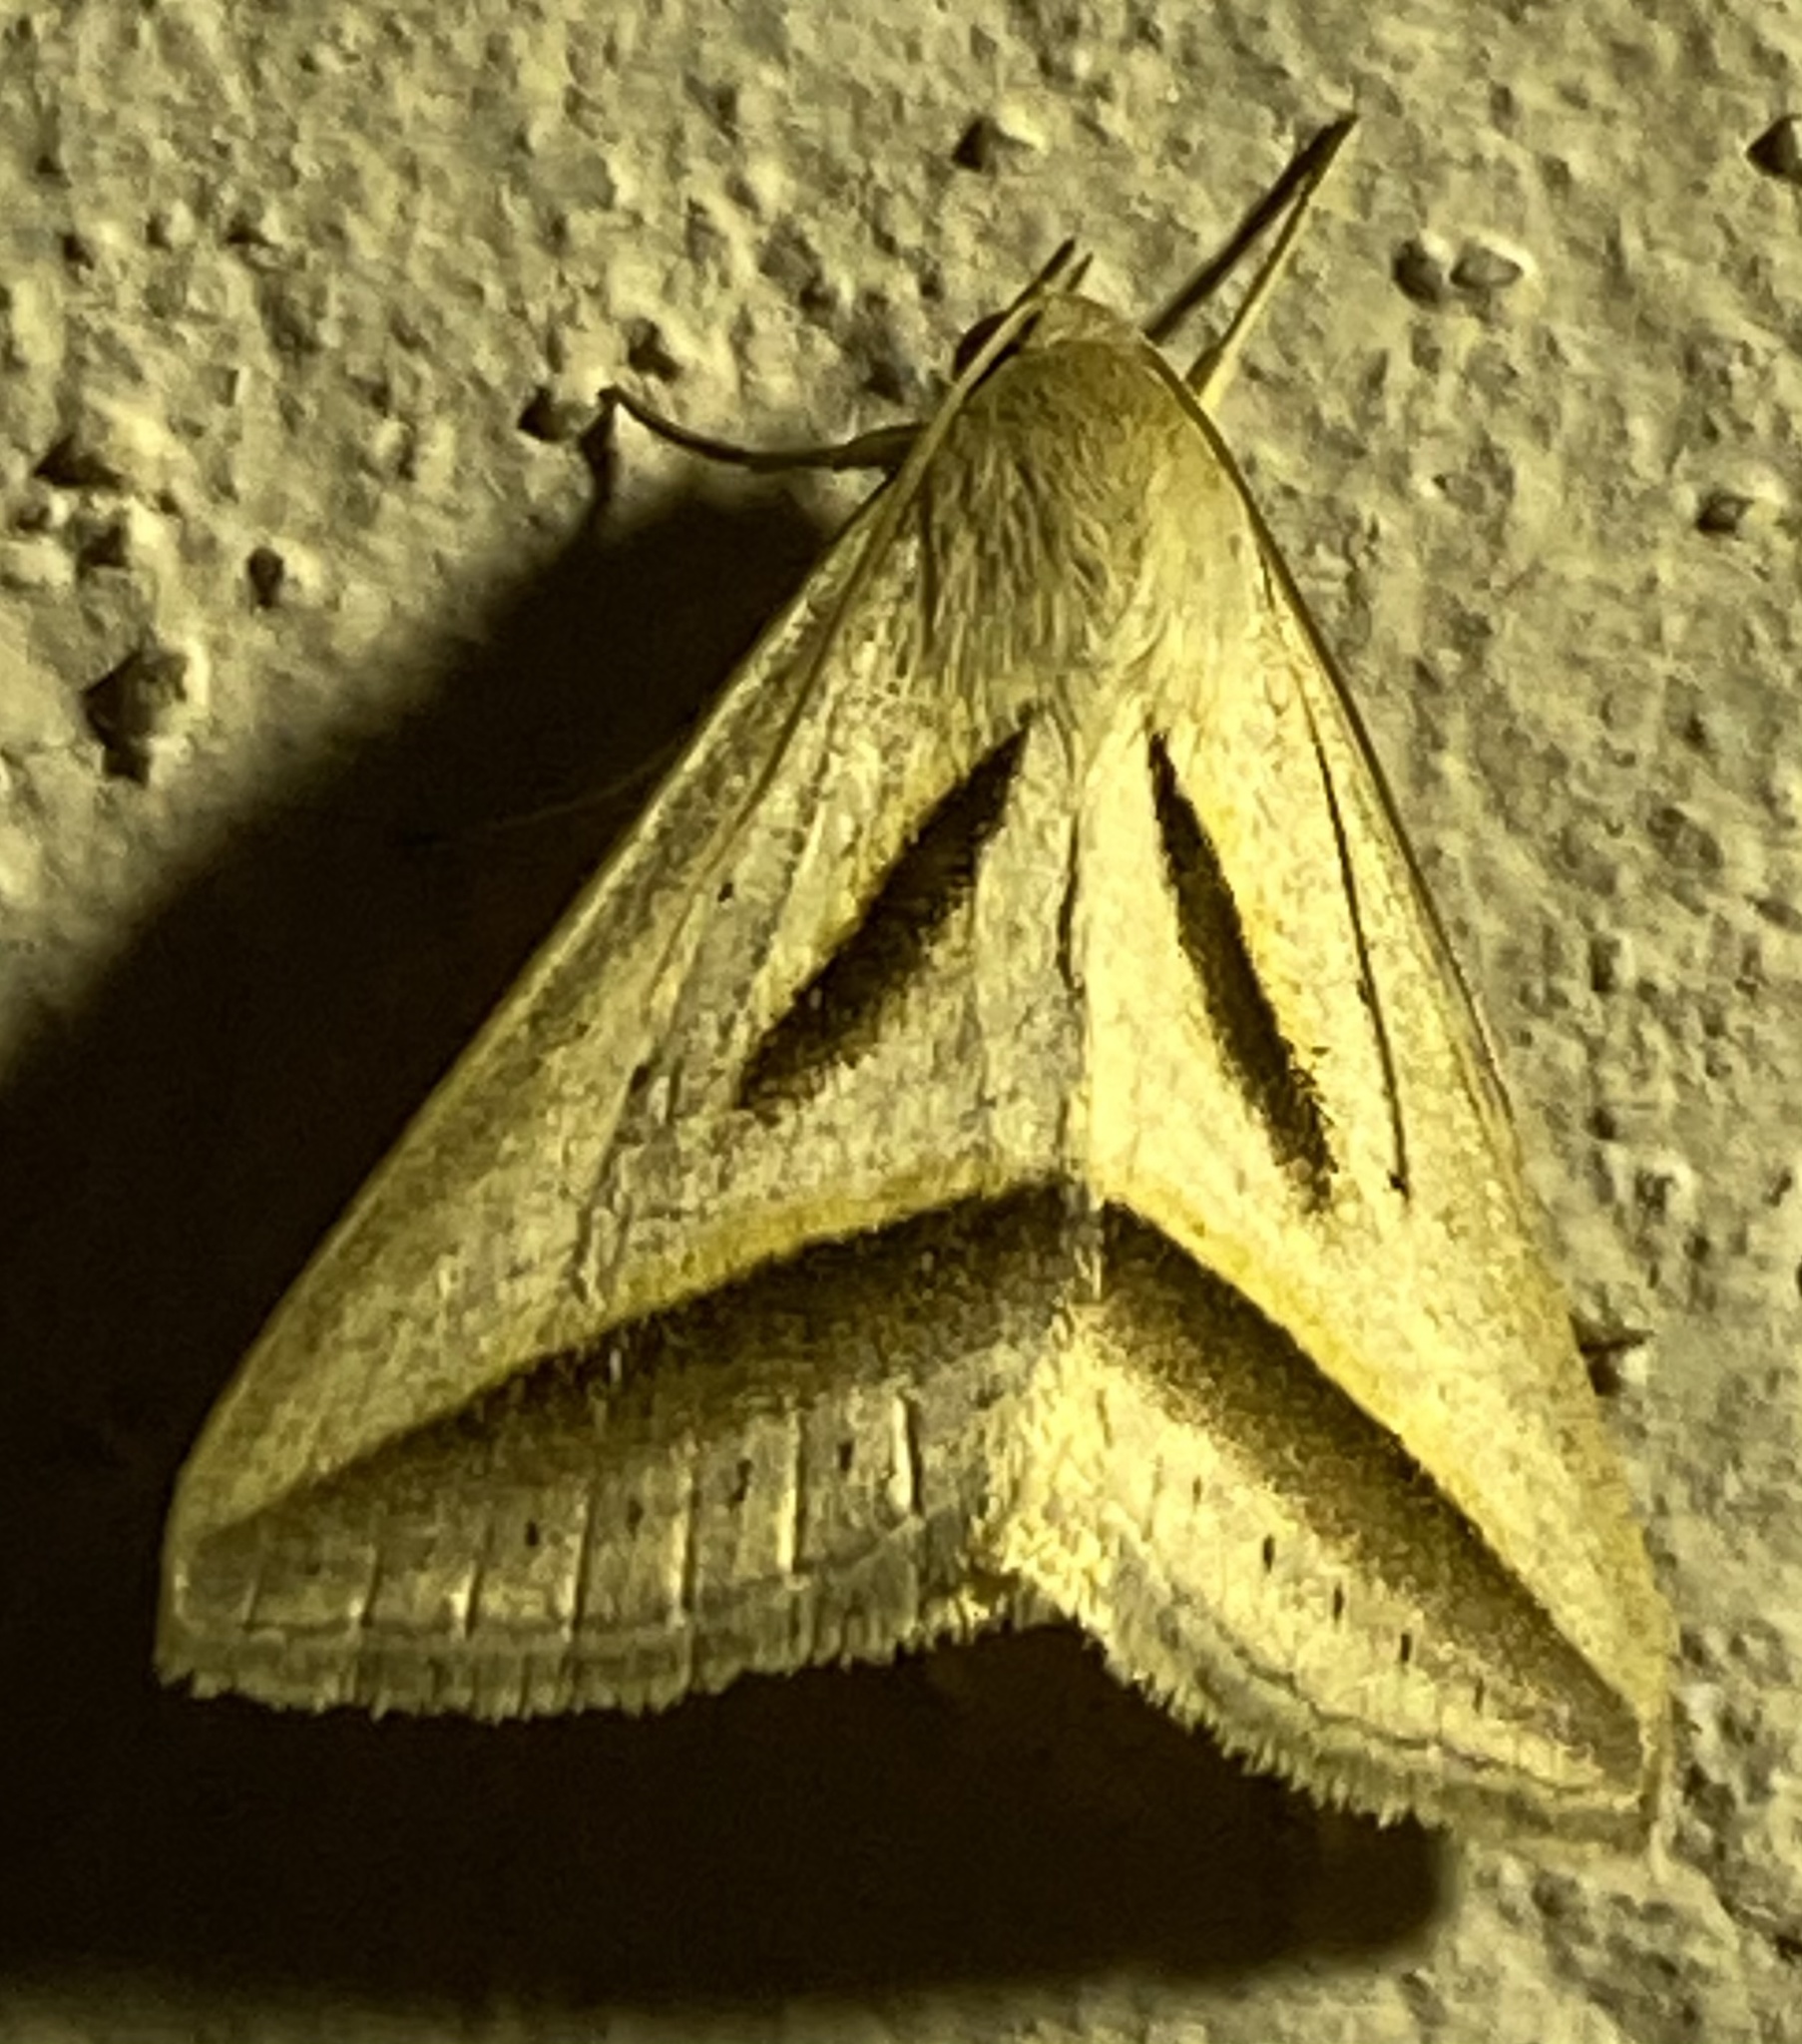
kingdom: Animalia
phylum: Arthropoda
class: Insecta
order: Lepidoptera
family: Erebidae
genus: Ptichodis
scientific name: Ptichodis dorsalis
